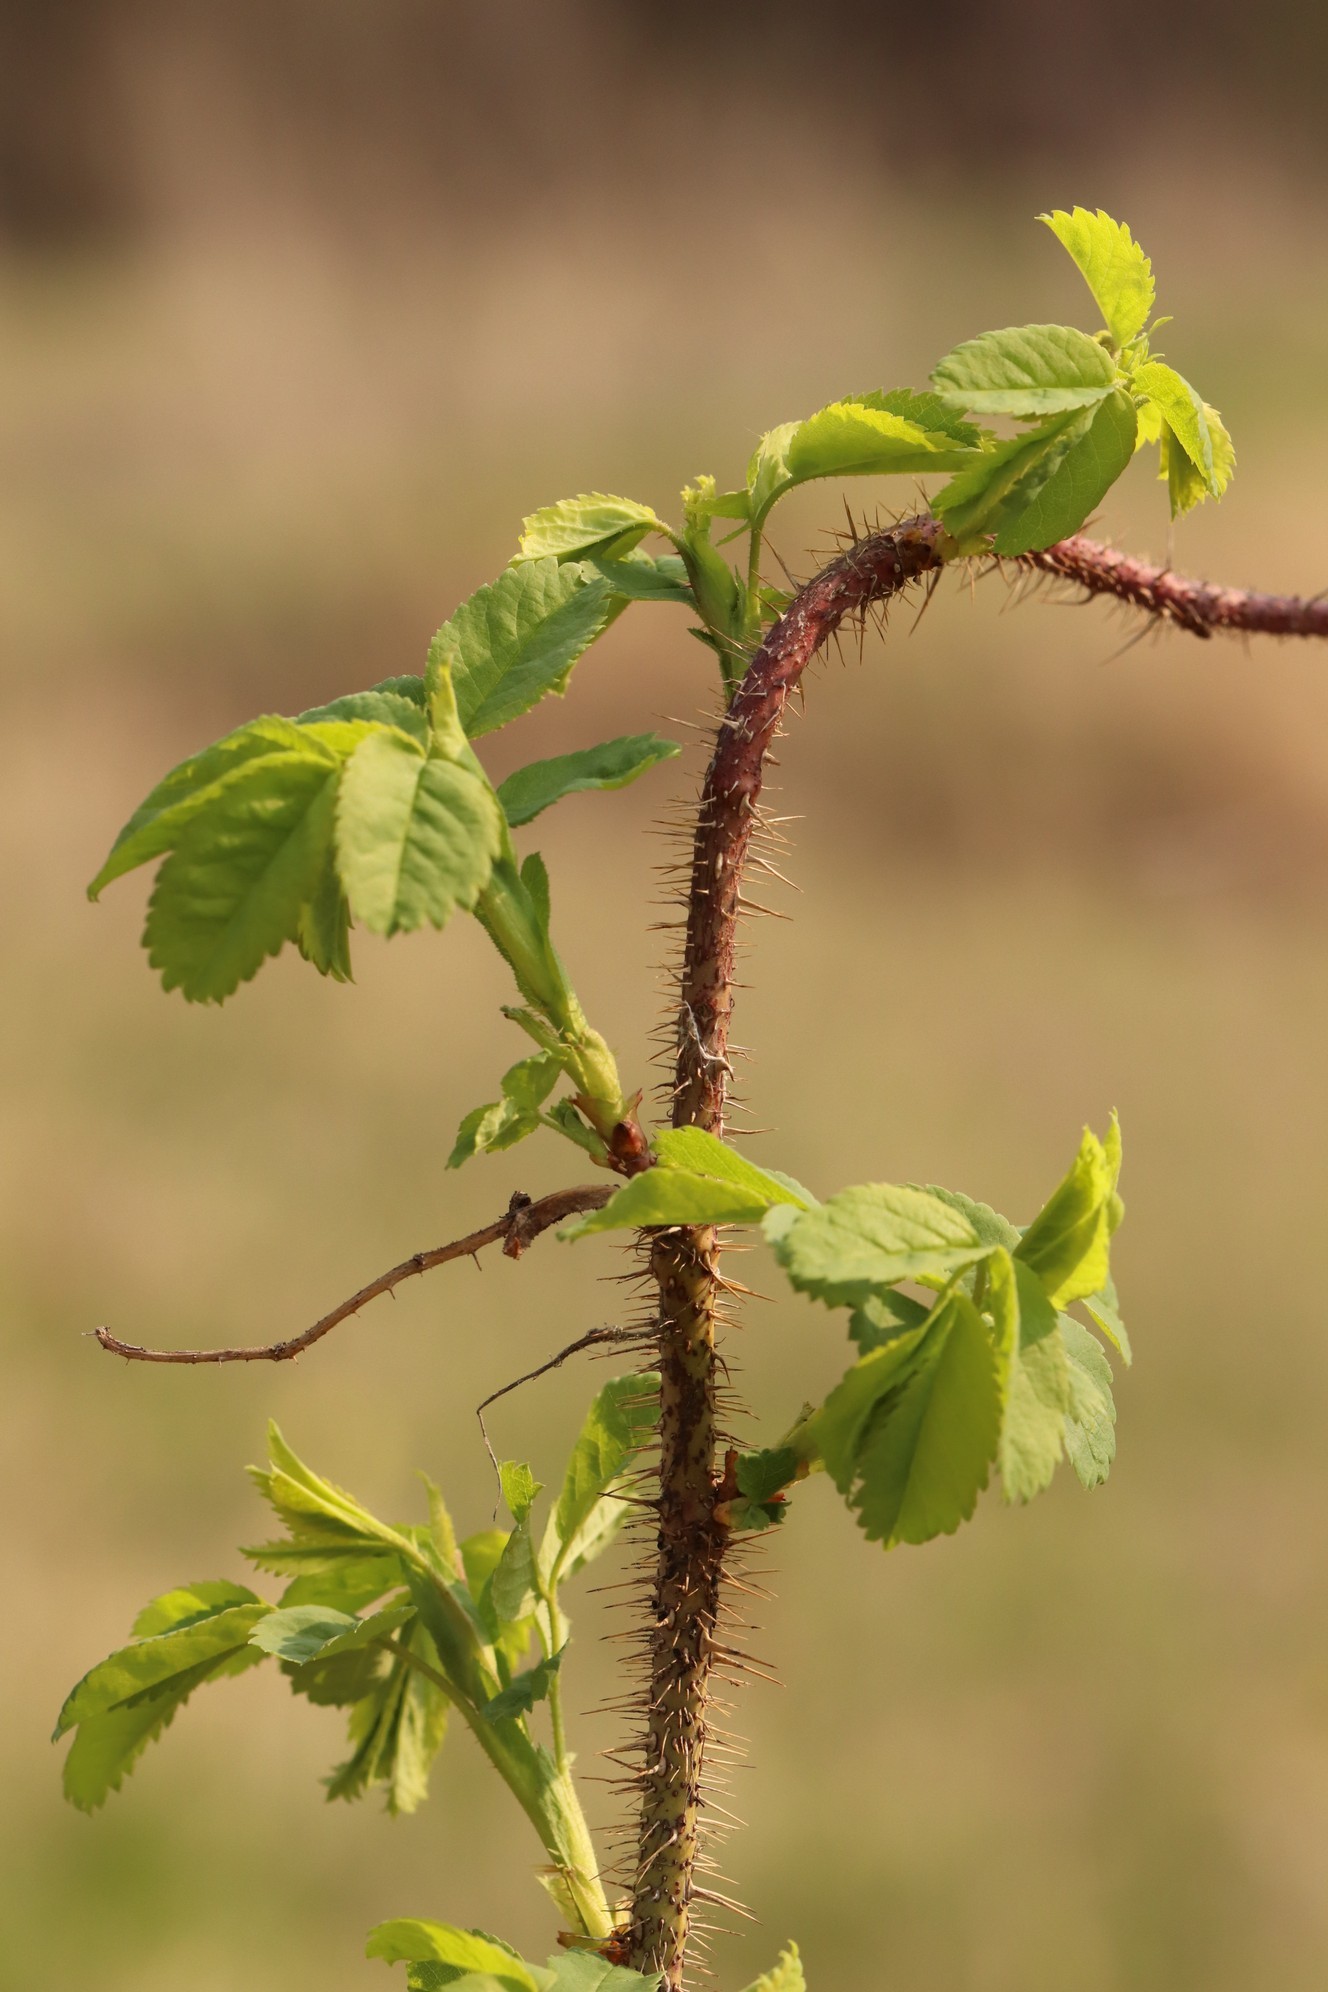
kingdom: Plantae
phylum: Tracheophyta
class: Magnoliopsida
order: Rosales
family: Rosaceae
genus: Rosa
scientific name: Rosa acicularis
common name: Prickly rose
